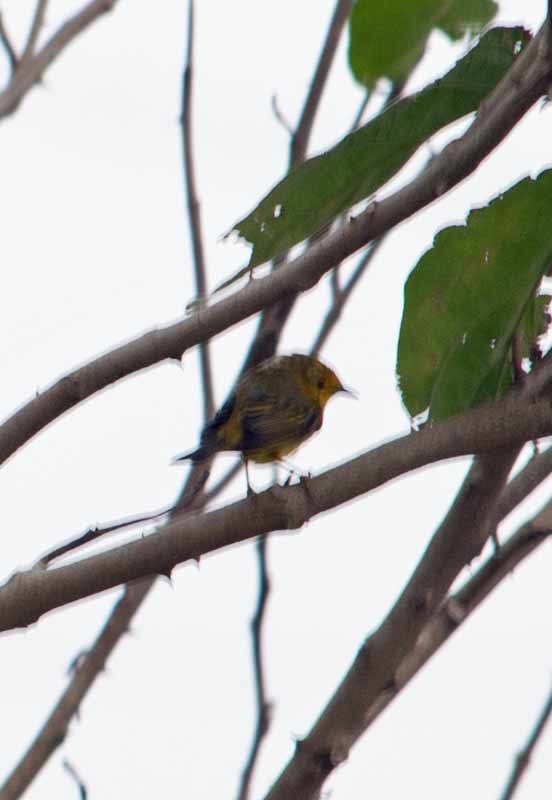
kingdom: Animalia
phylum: Chordata
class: Aves
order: Passeriformes
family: Parulidae
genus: Setophaga
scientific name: Setophaga petechia
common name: Yellow warbler
